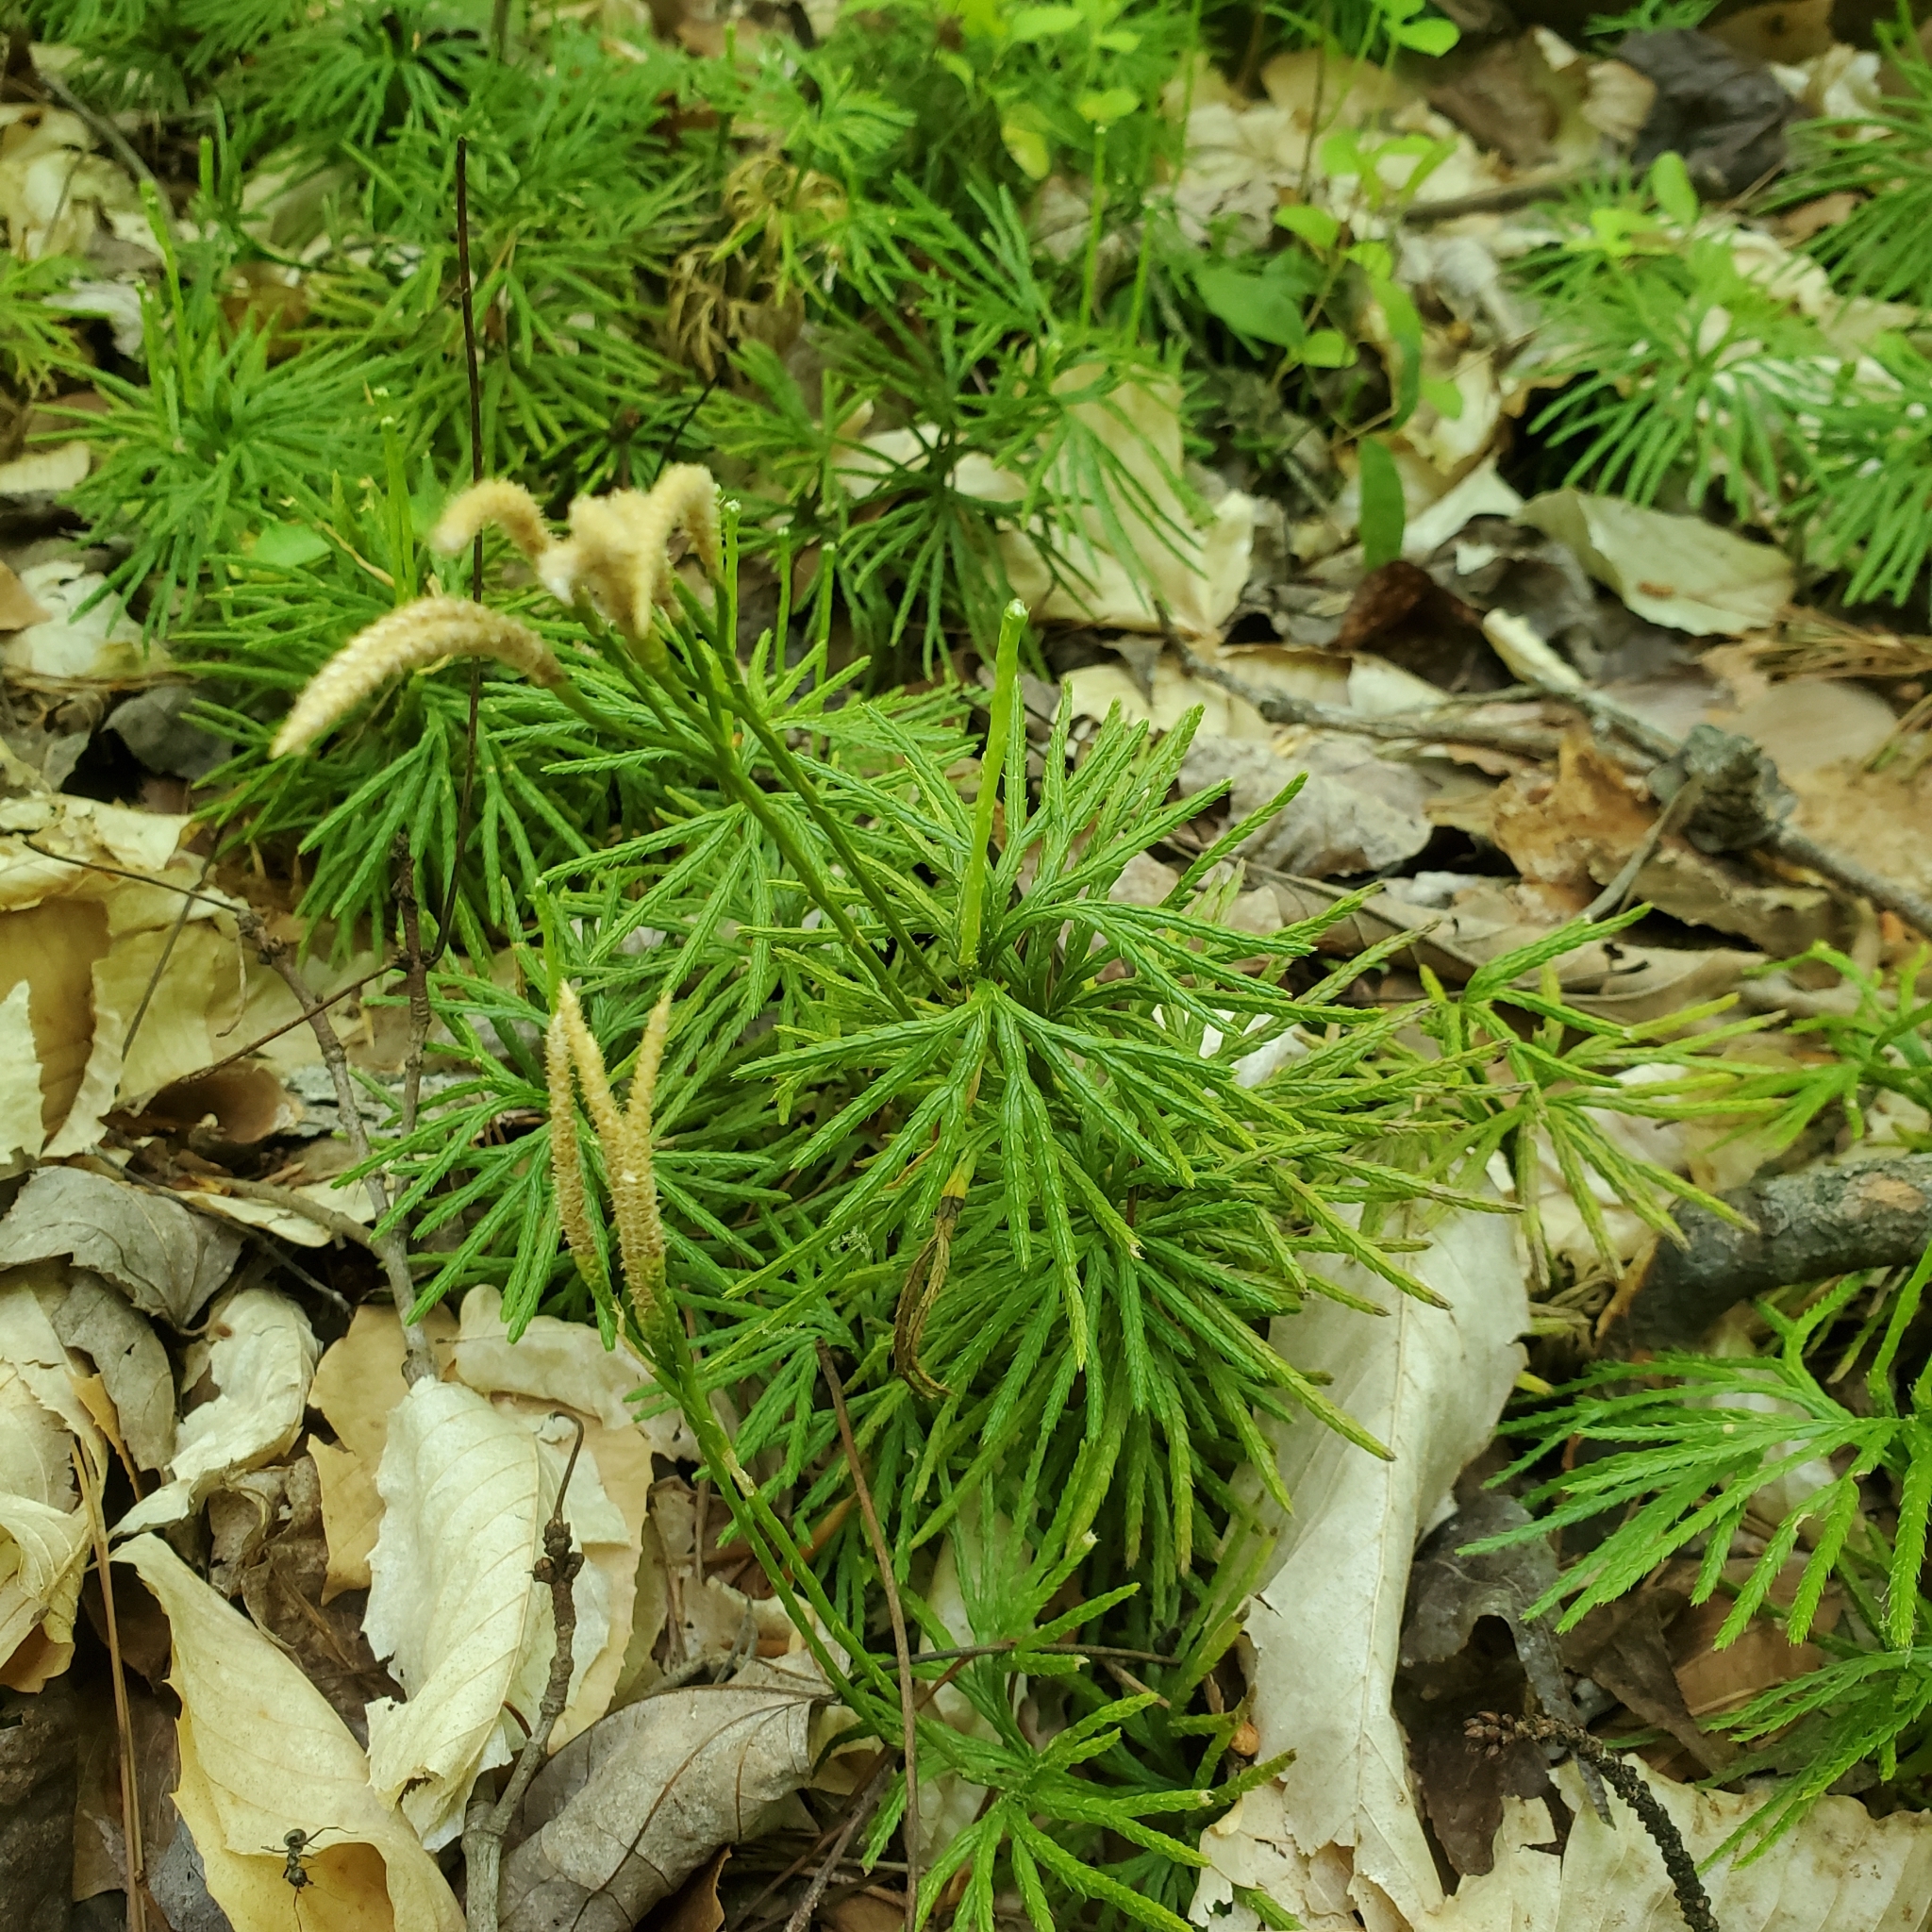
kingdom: Plantae
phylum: Tracheophyta
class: Lycopodiopsida
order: Lycopodiales
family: Lycopodiaceae
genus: Diphasiastrum
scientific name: Diphasiastrum digitatum
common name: Southern running-pine
